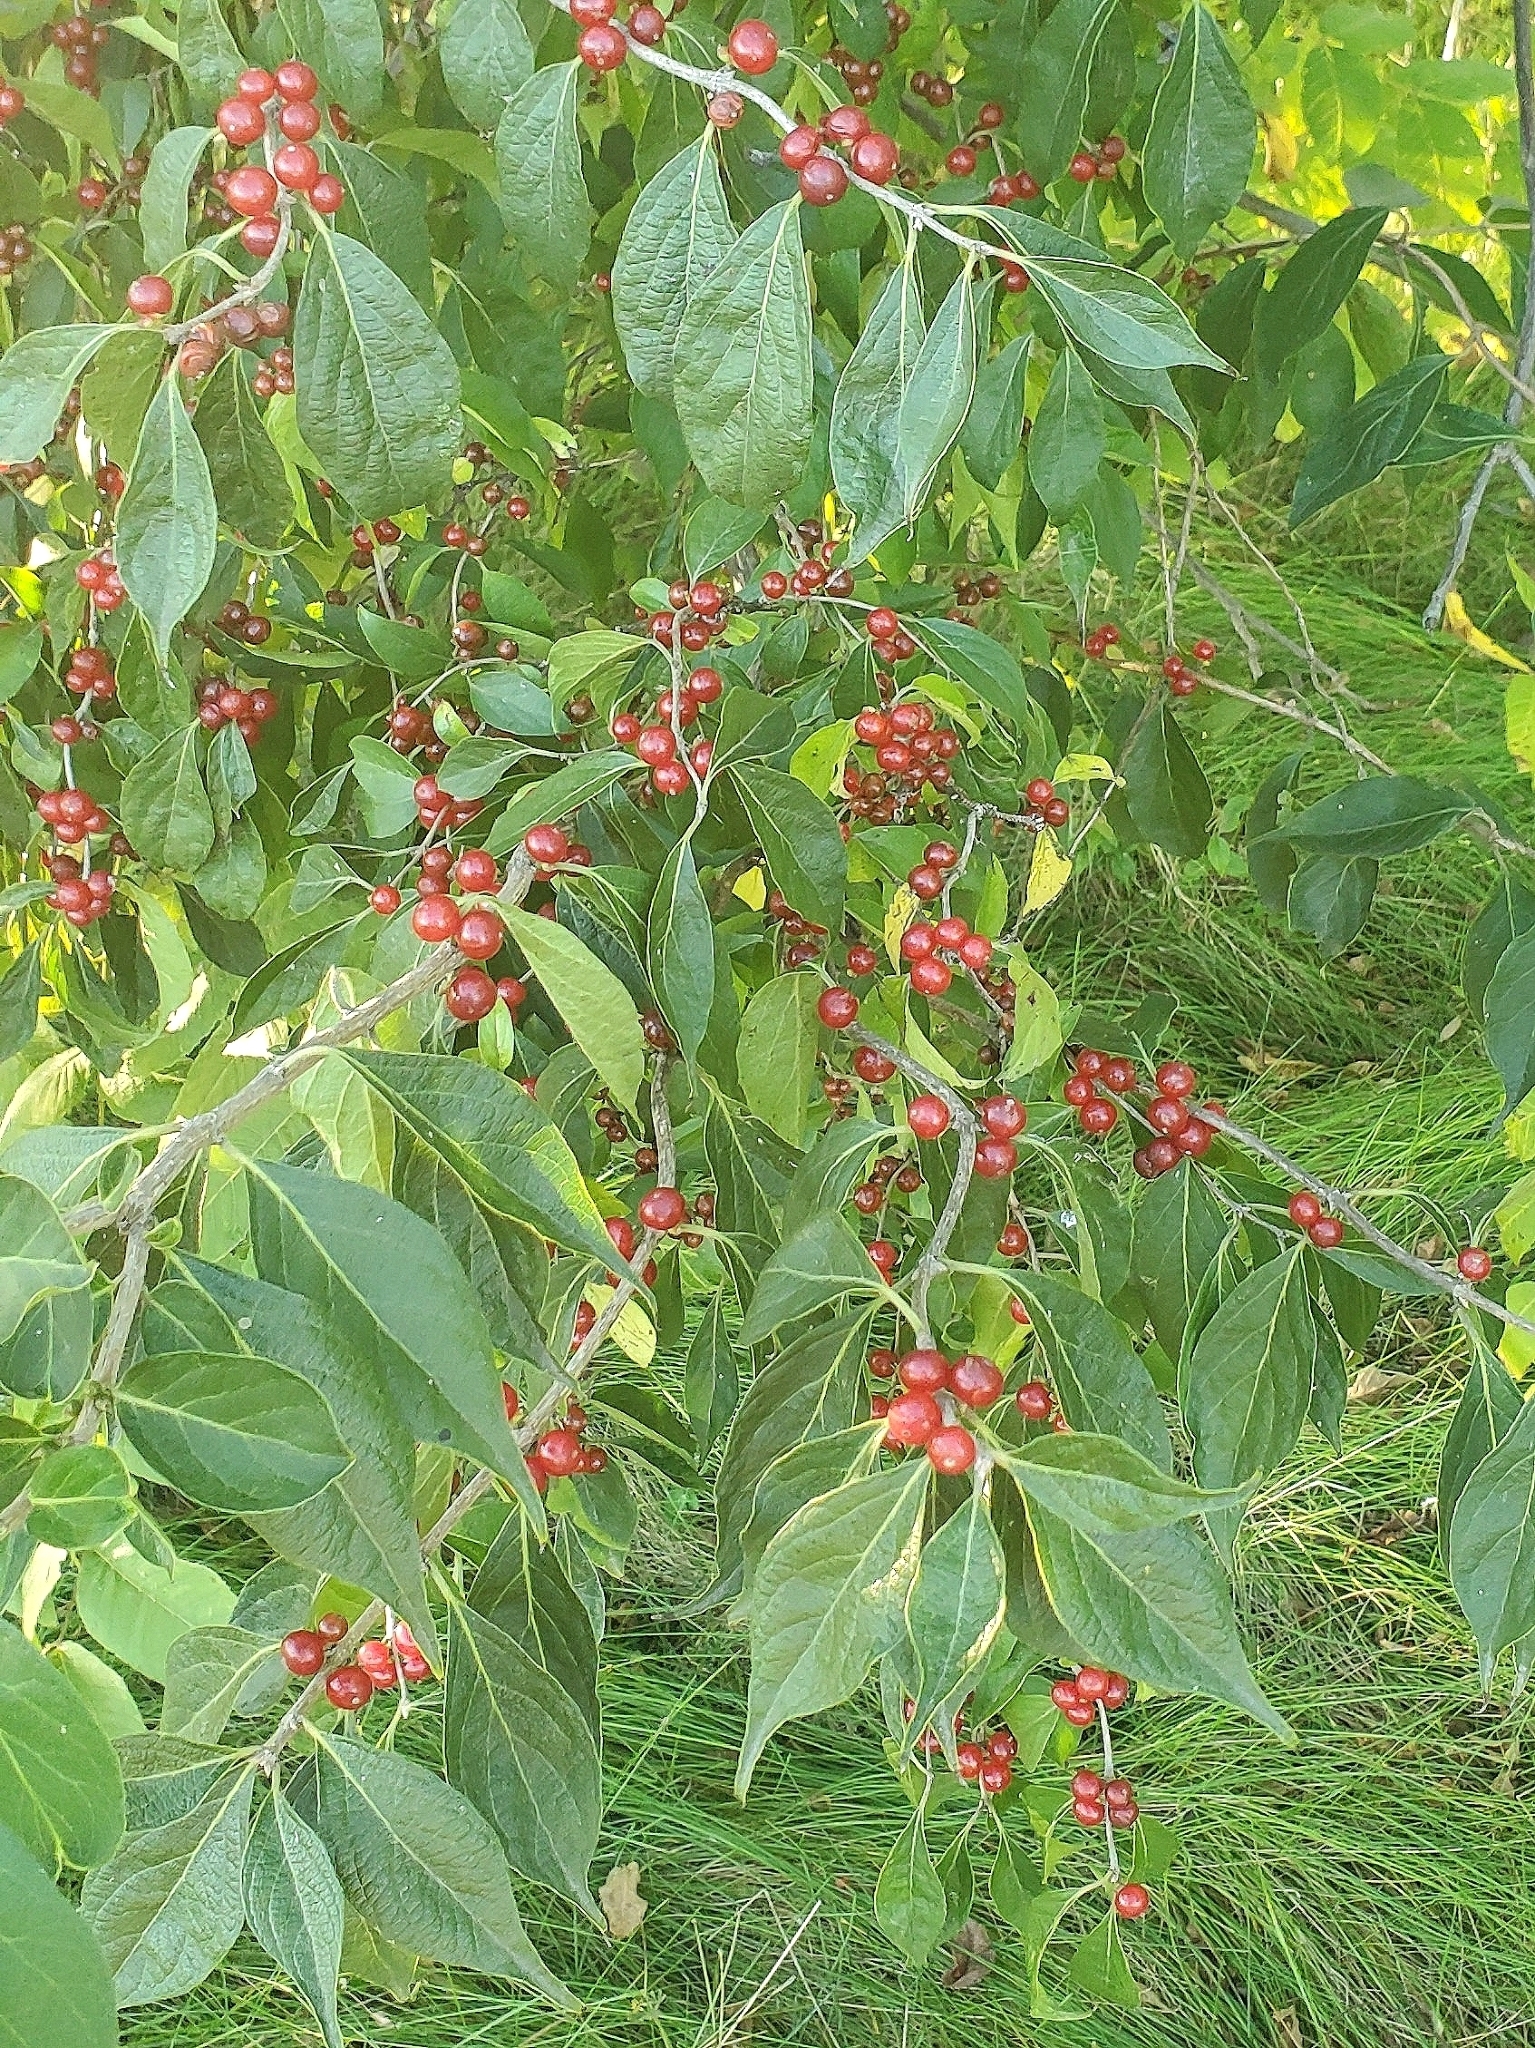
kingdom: Plantae
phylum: Tracheophyta
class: Magnoliopsida
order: Dipsacales
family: Caprifoliaceae
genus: Lonicera
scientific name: Lonicera maackii
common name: Amur honeysuckle
